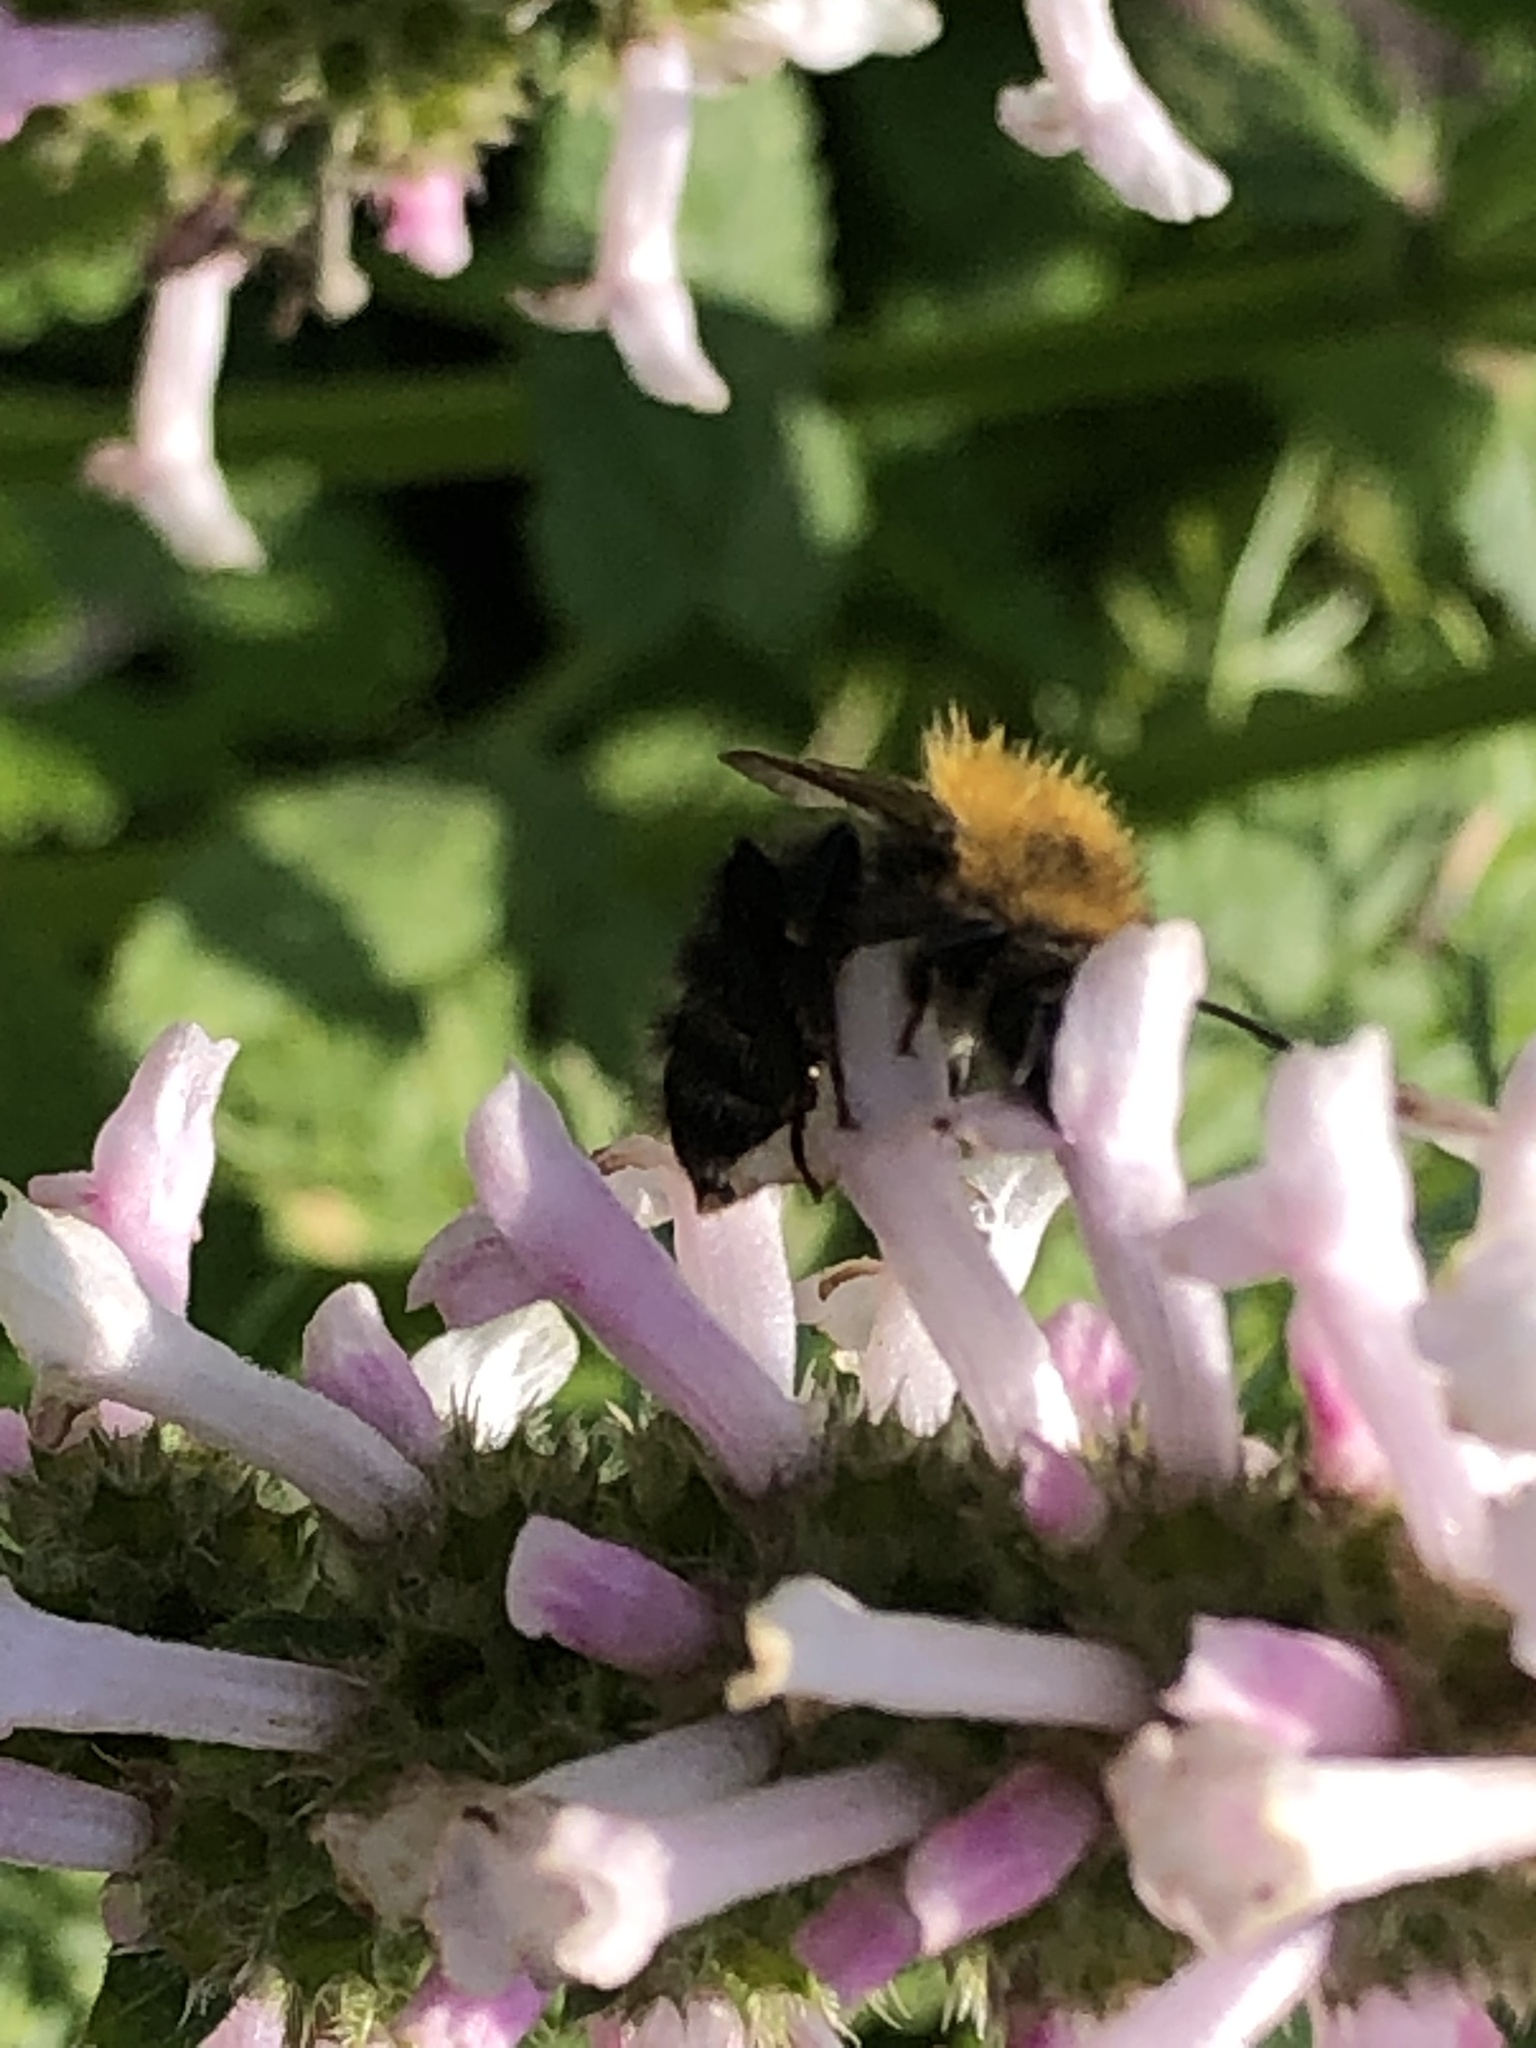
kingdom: Animalia
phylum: Arthropoda
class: Insecta
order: Hymenoptera
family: Apidae
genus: Bombus
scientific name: Bombus pascuorum
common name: Common carder bee
